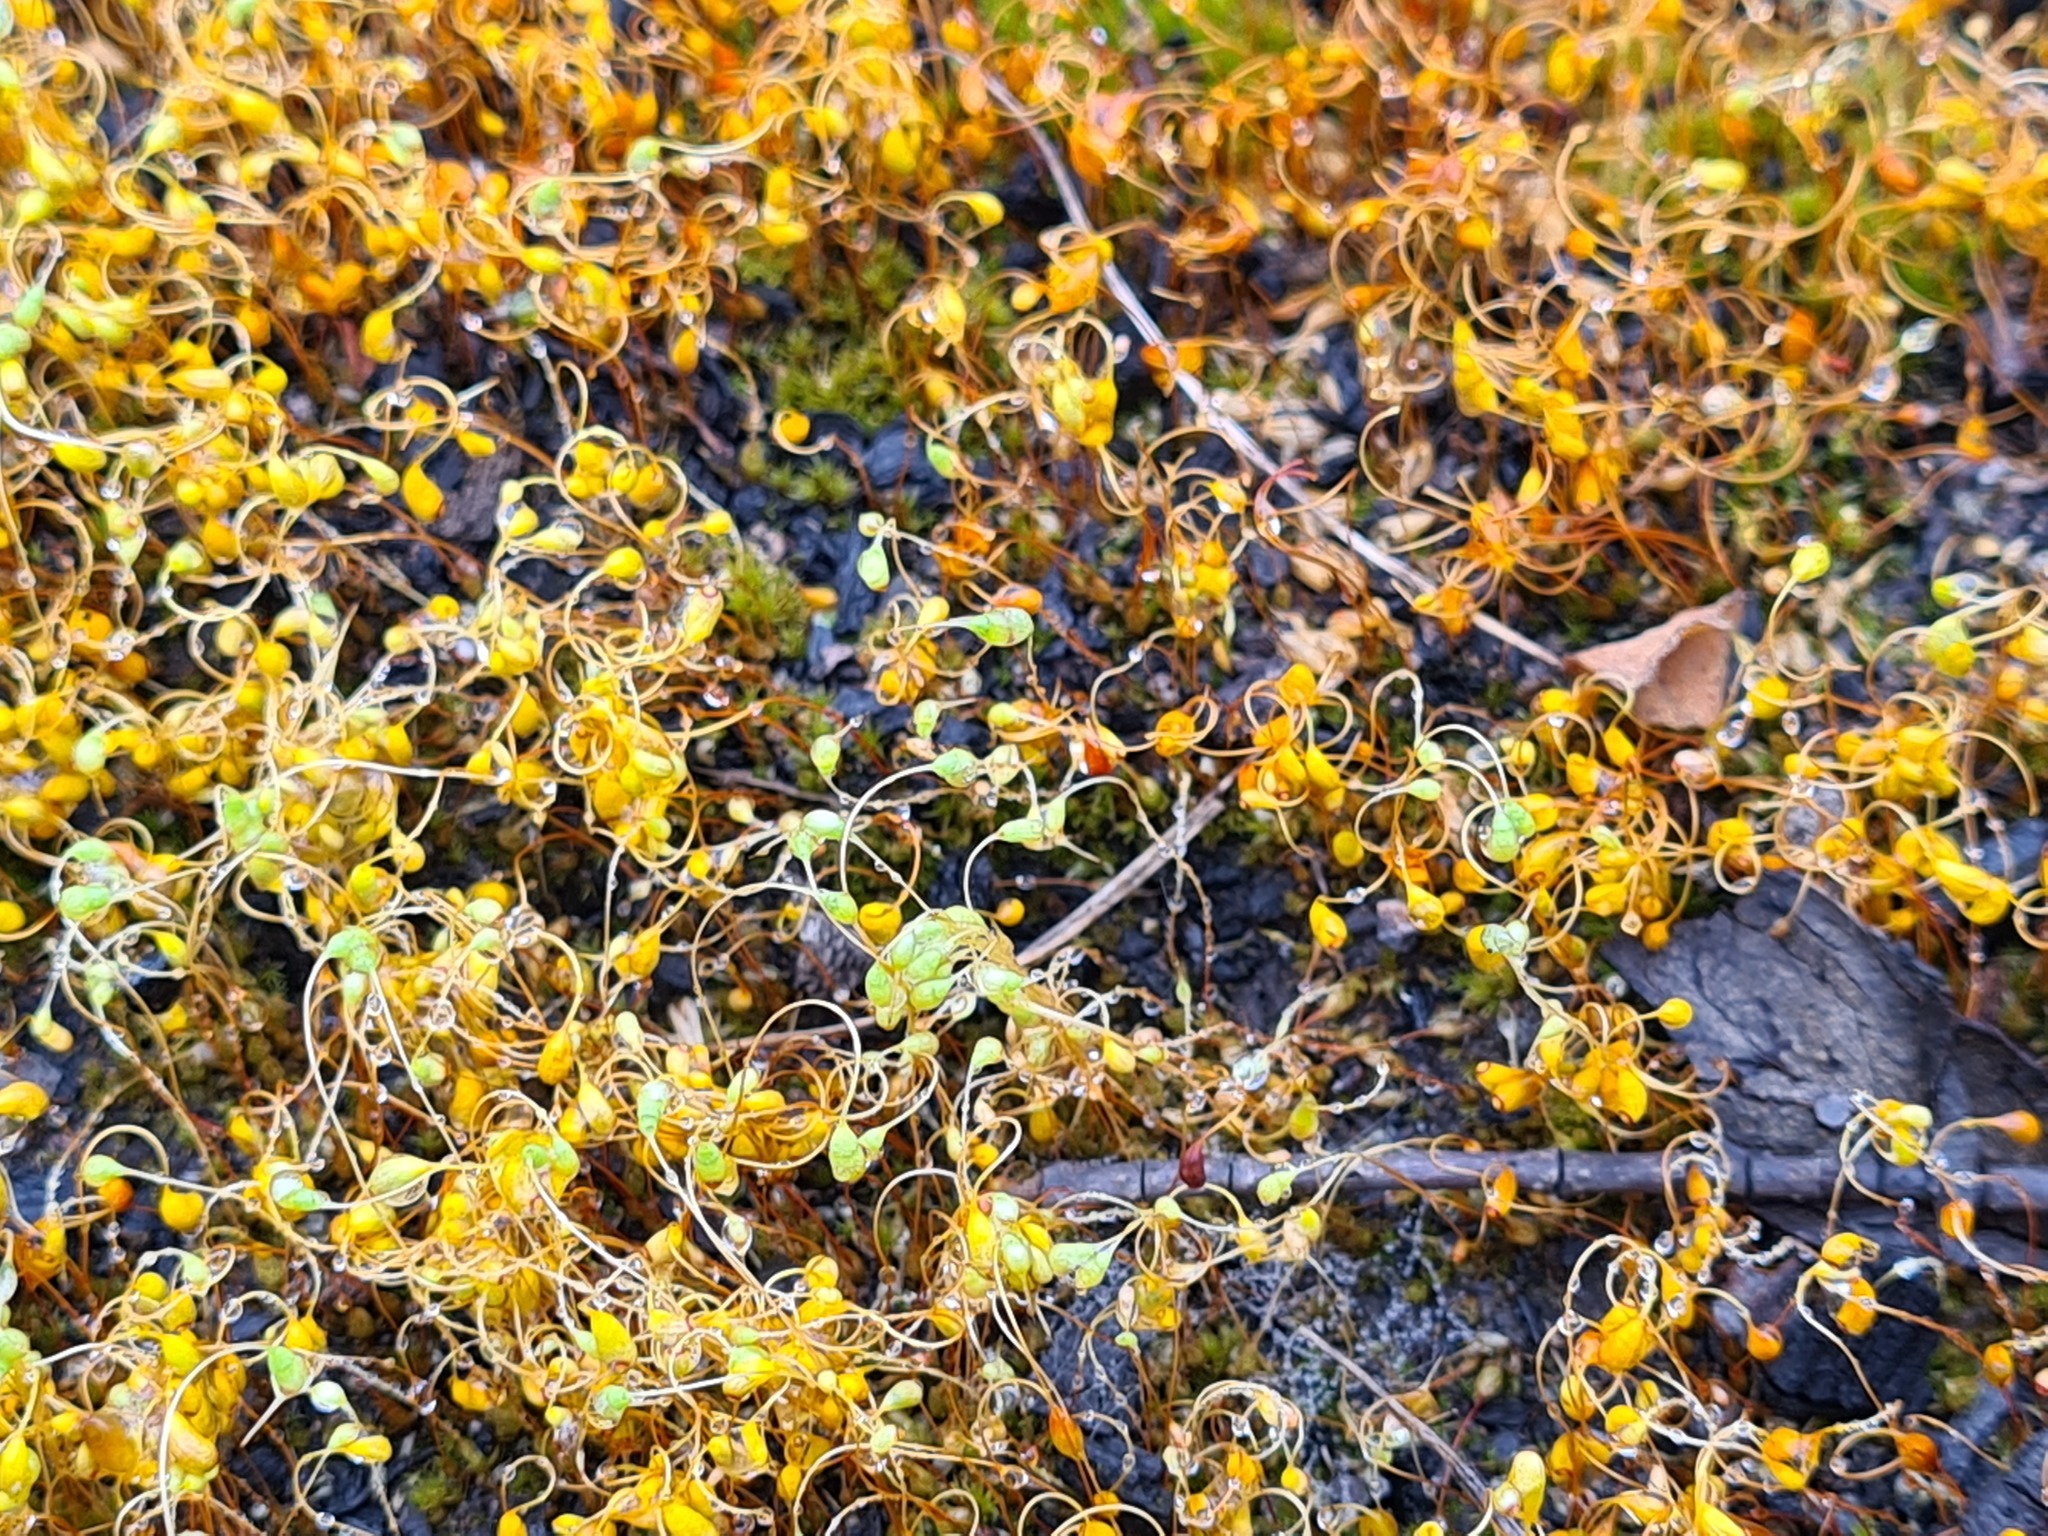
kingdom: Plantae
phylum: Bryophyta
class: Bryopsida
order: Funariales
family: Funariaceae
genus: Funaria
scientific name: Funaria hygrometrica
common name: Common cord moss
